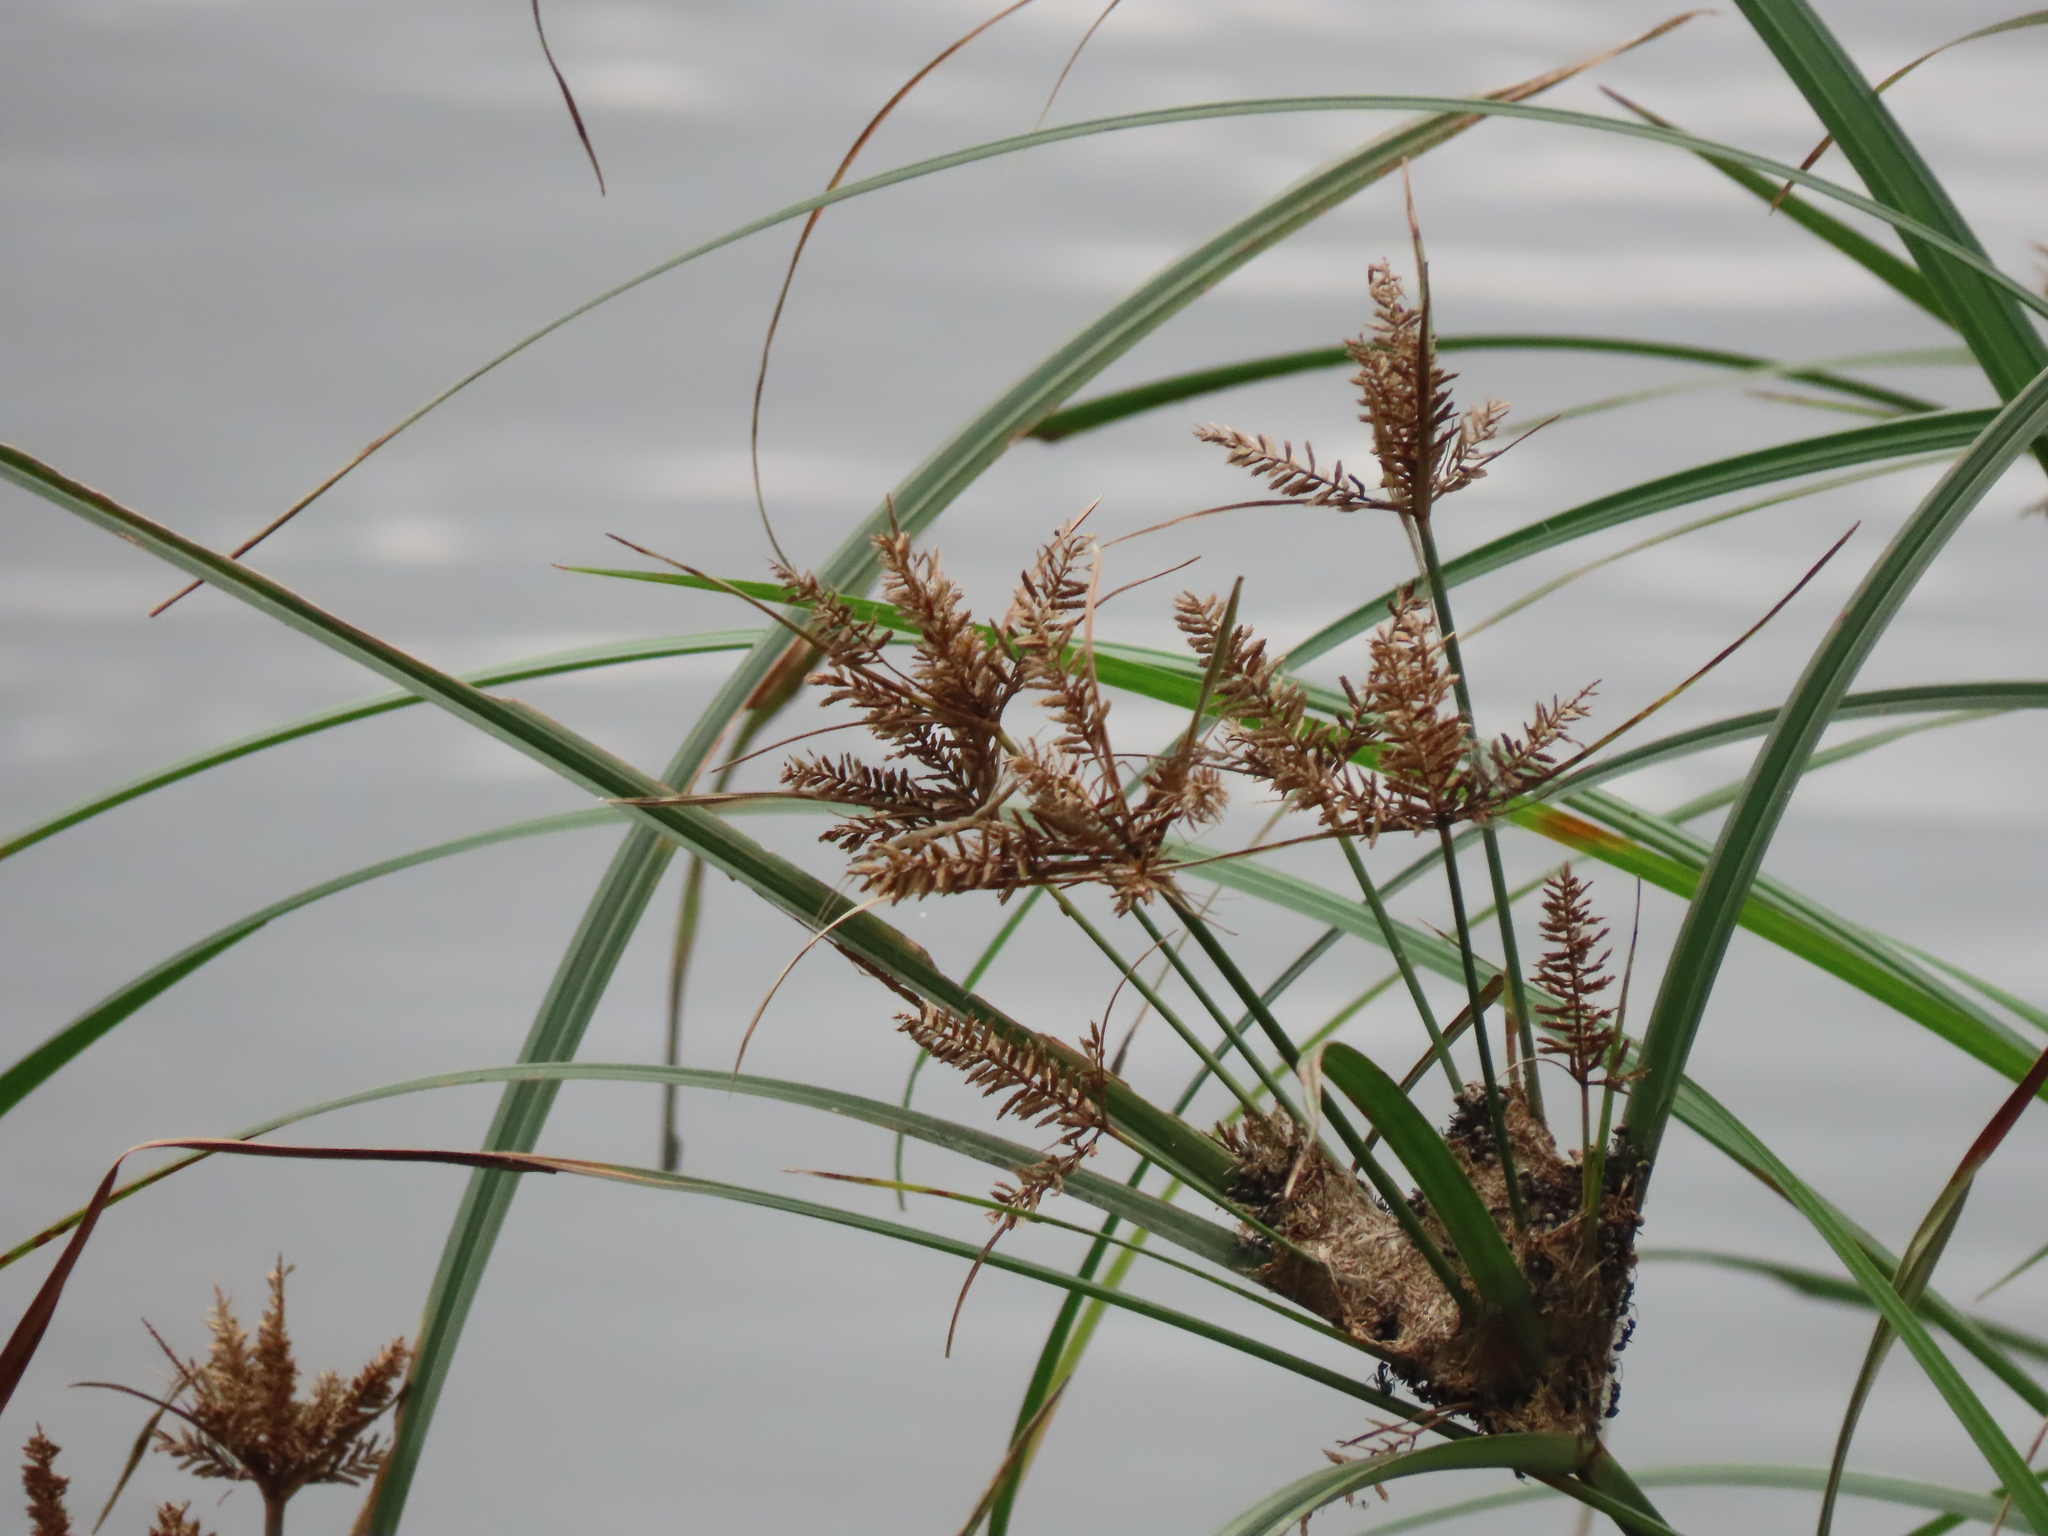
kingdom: Plantae
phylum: Tracheophyta
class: Liliopsida
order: Poales
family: Cyperaceae
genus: Cyperus
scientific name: Cyperus exaltatus
